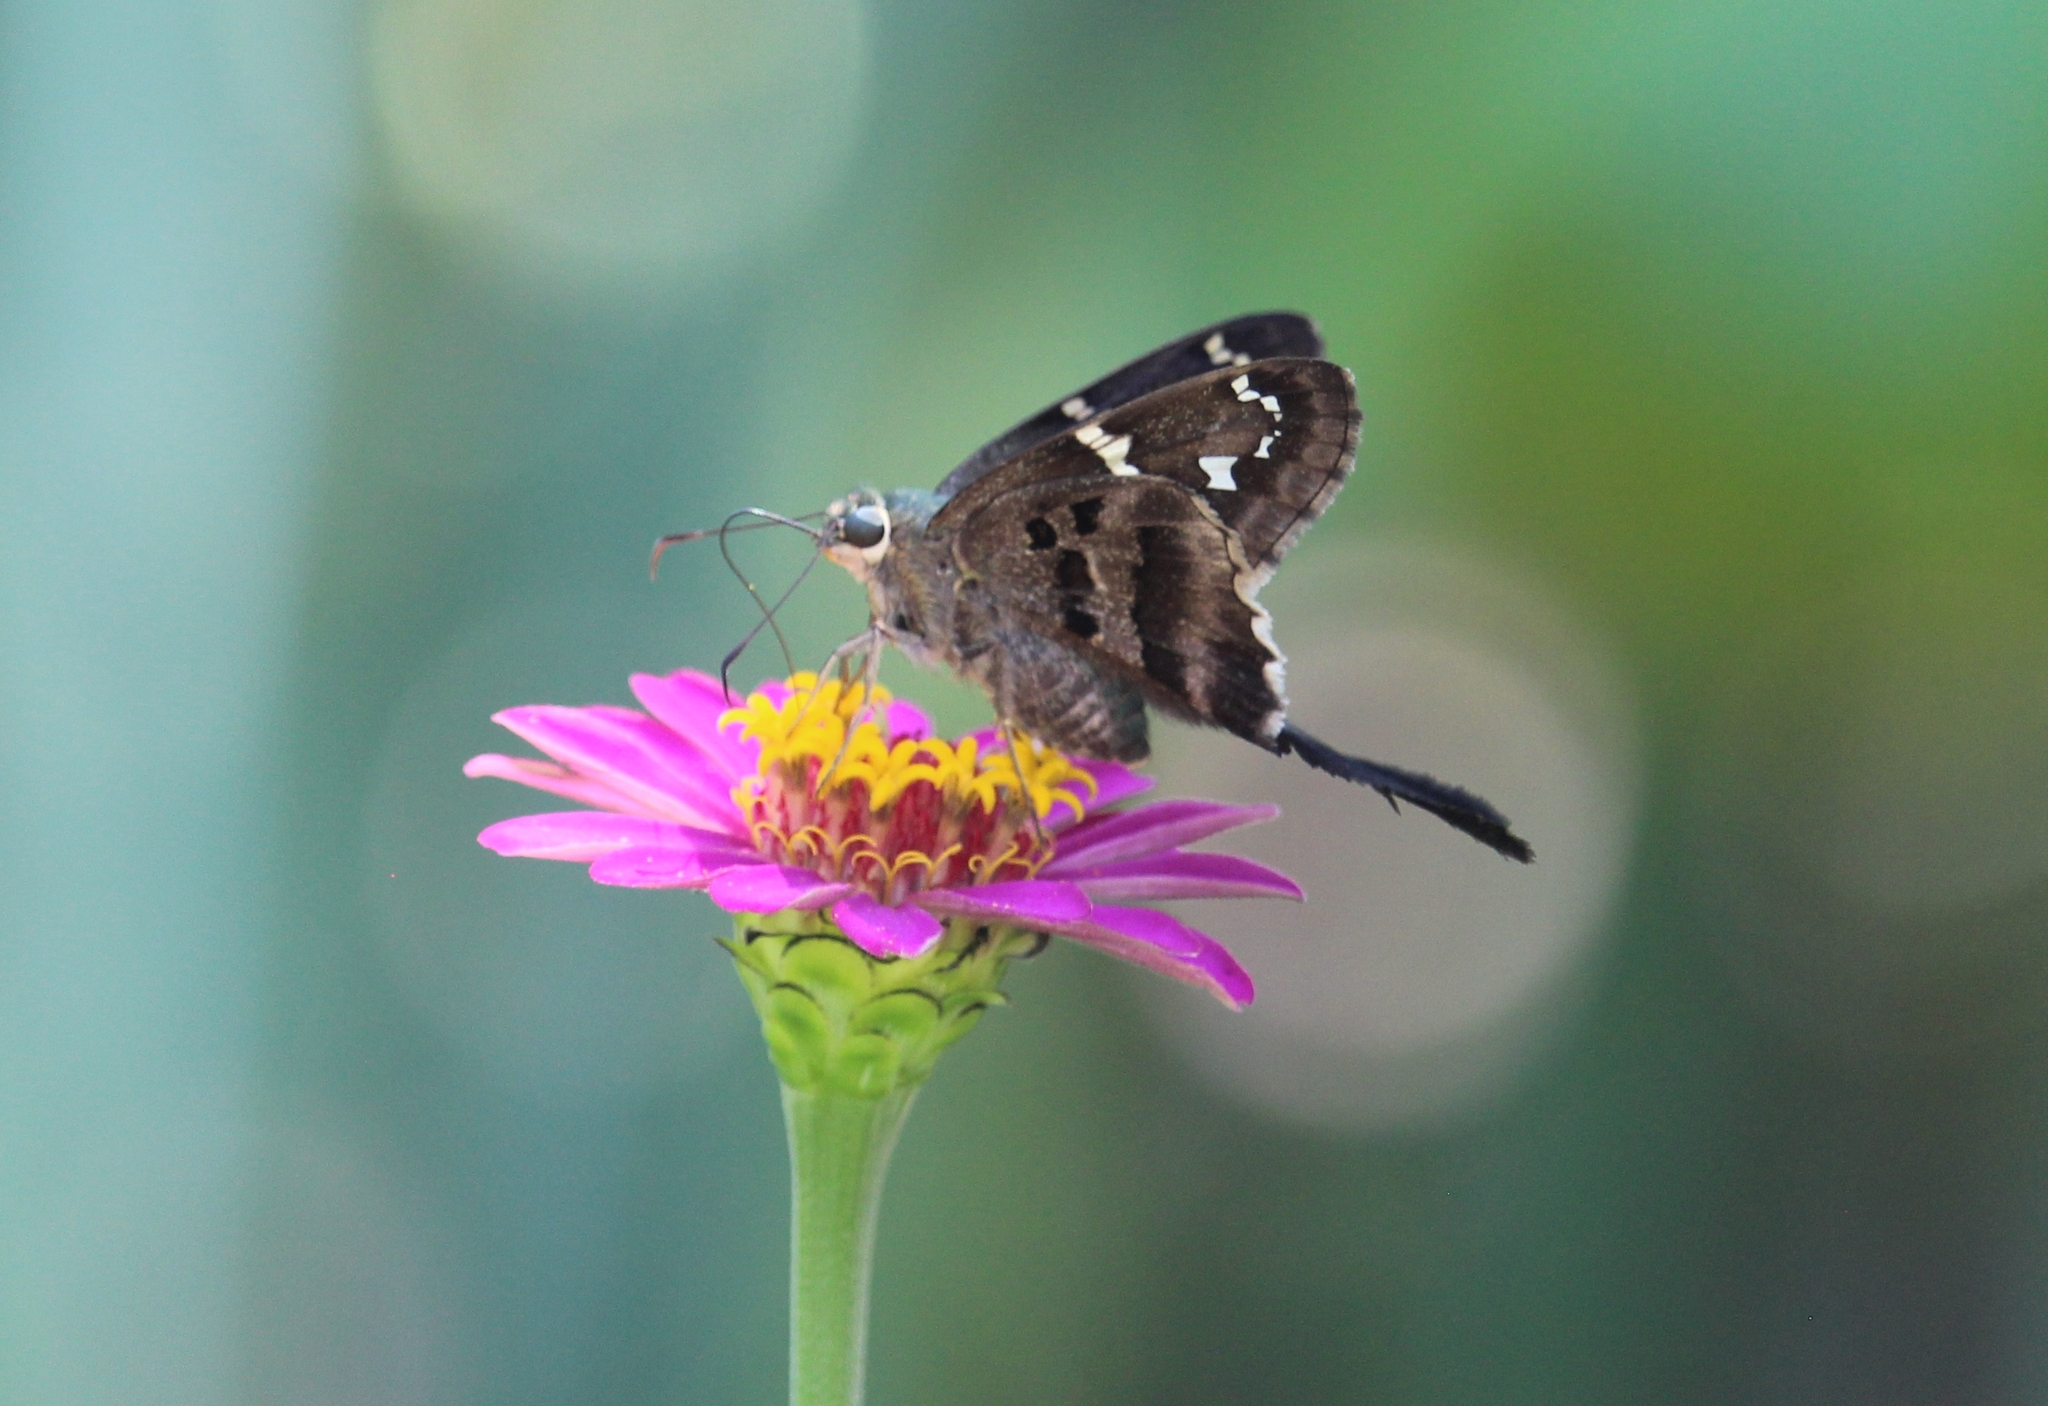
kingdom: Animalia
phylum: Arthropoda
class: Insecta
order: Lepidoptera
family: Hesperiidae
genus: Urbanus
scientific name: Urbanus proteus
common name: Long-tailed skipper
